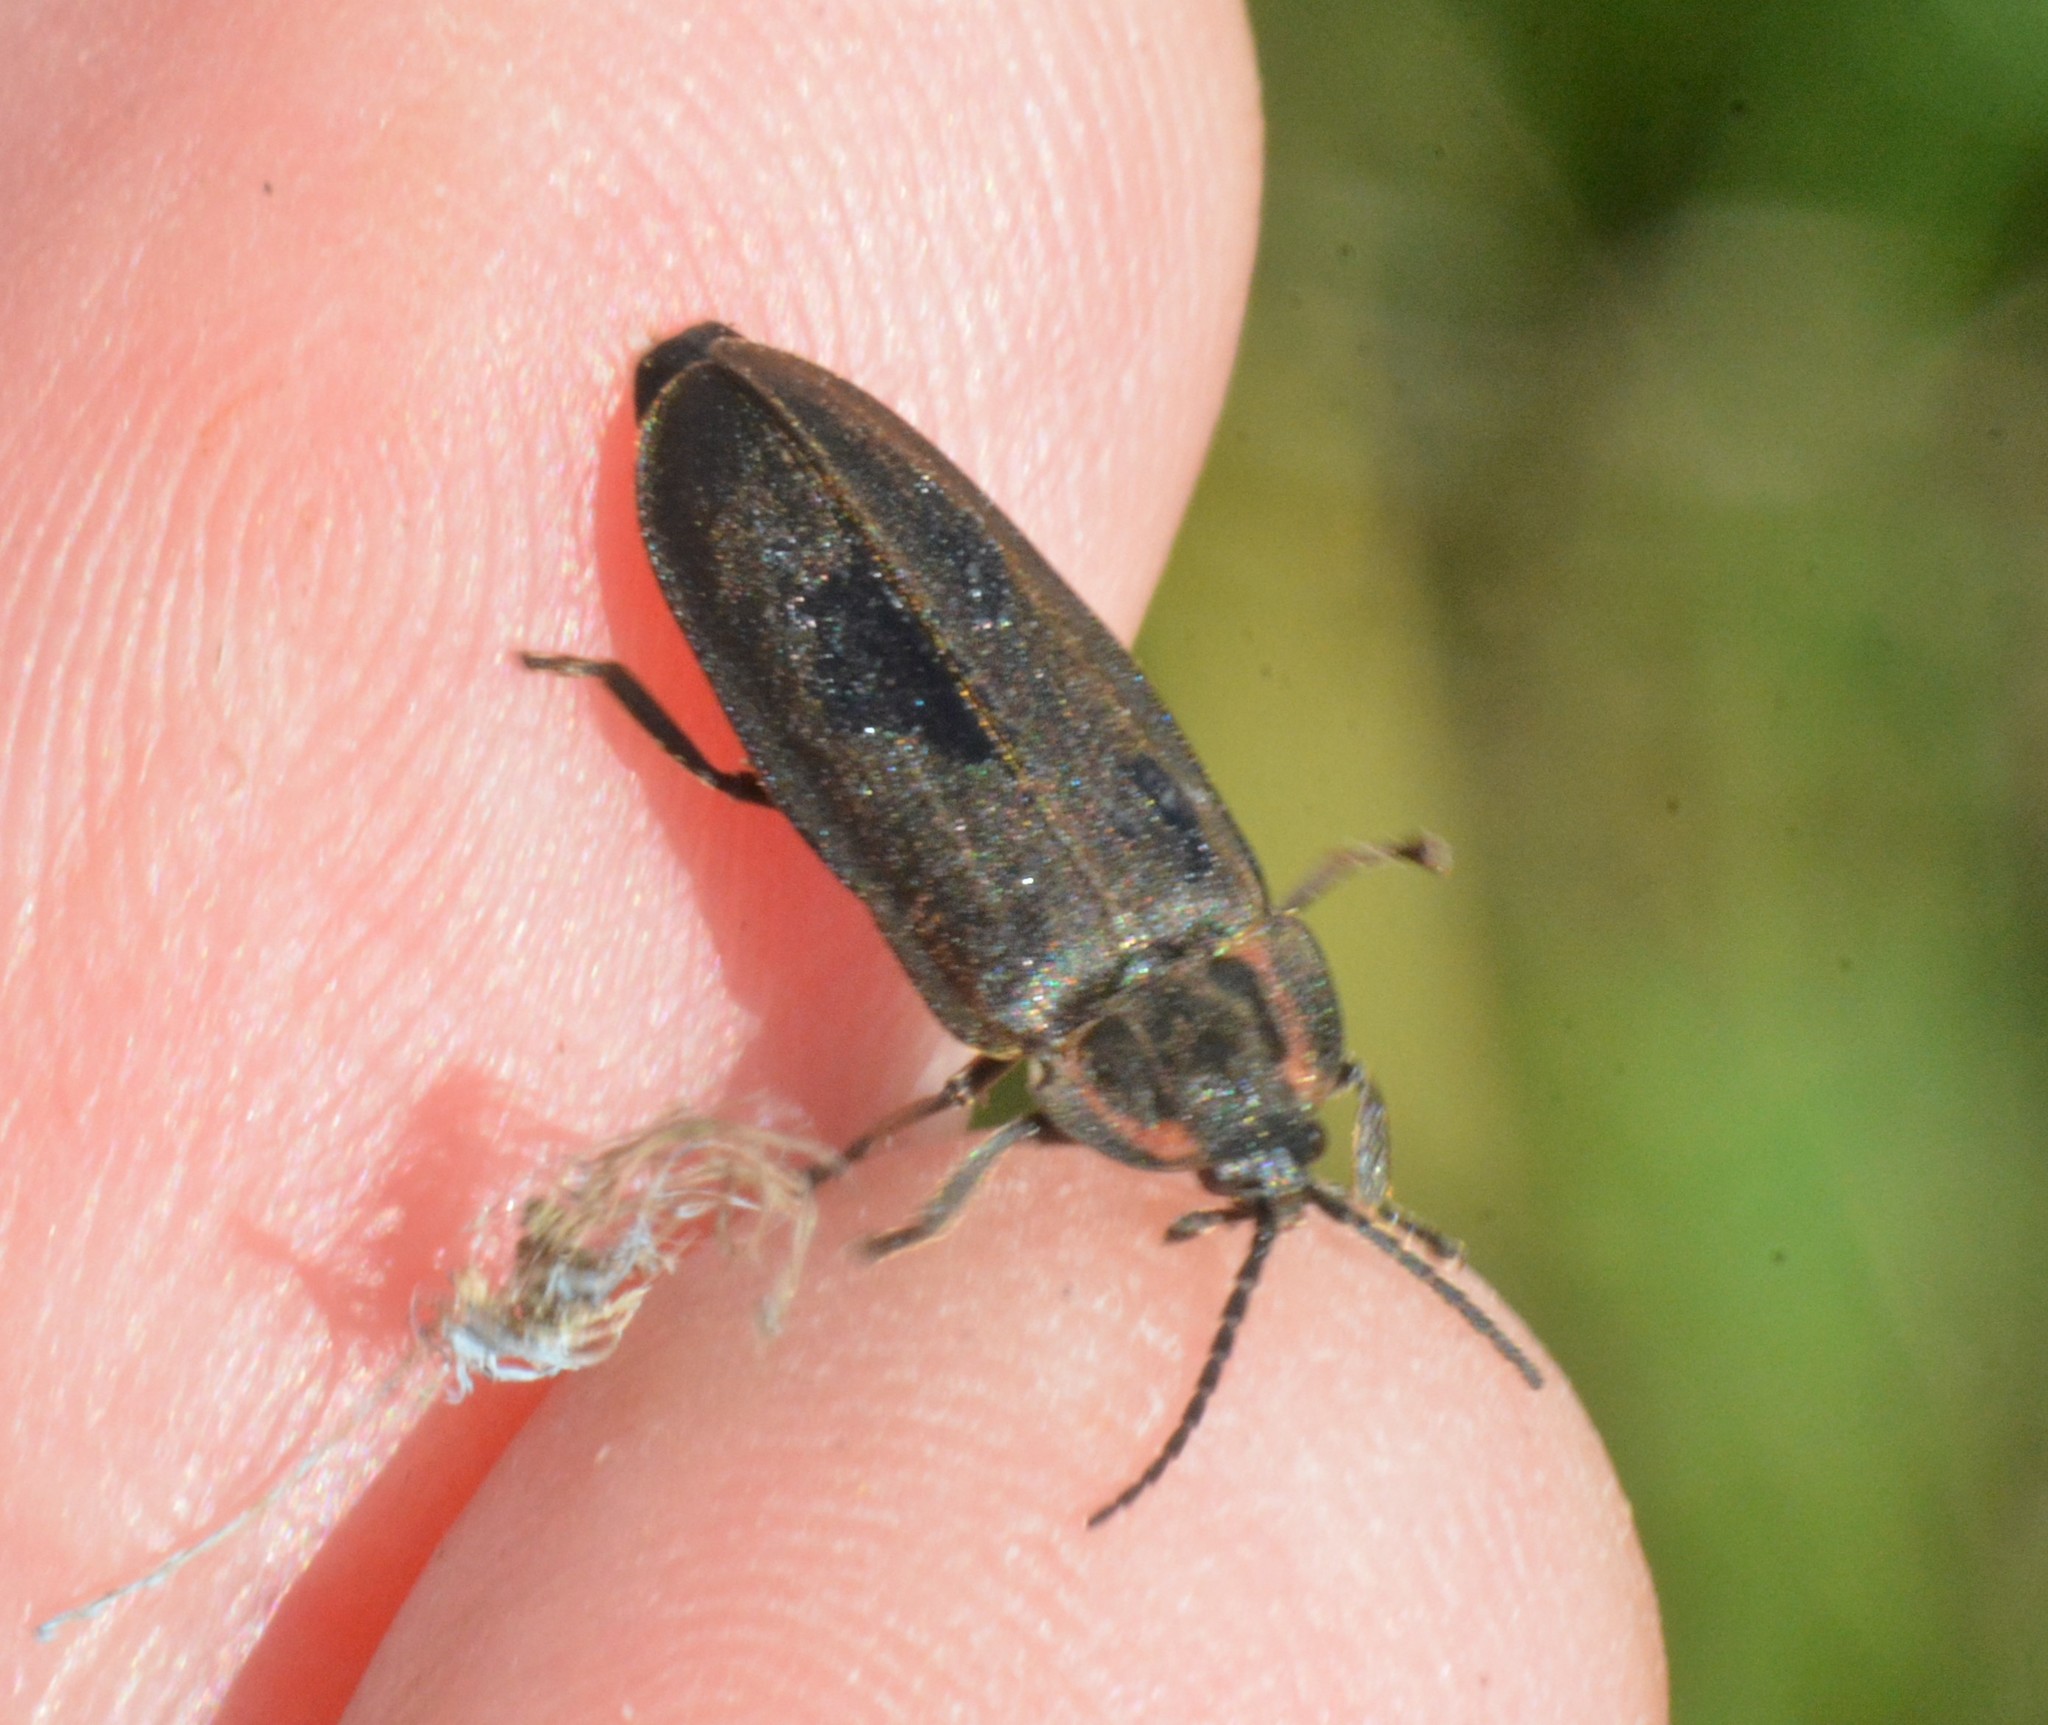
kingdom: Animalia
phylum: Arthropoda
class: Insecta
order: Coleoptera
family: Lampyridae
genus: Photinus
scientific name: Photinus corrusca
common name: Winter firefly
